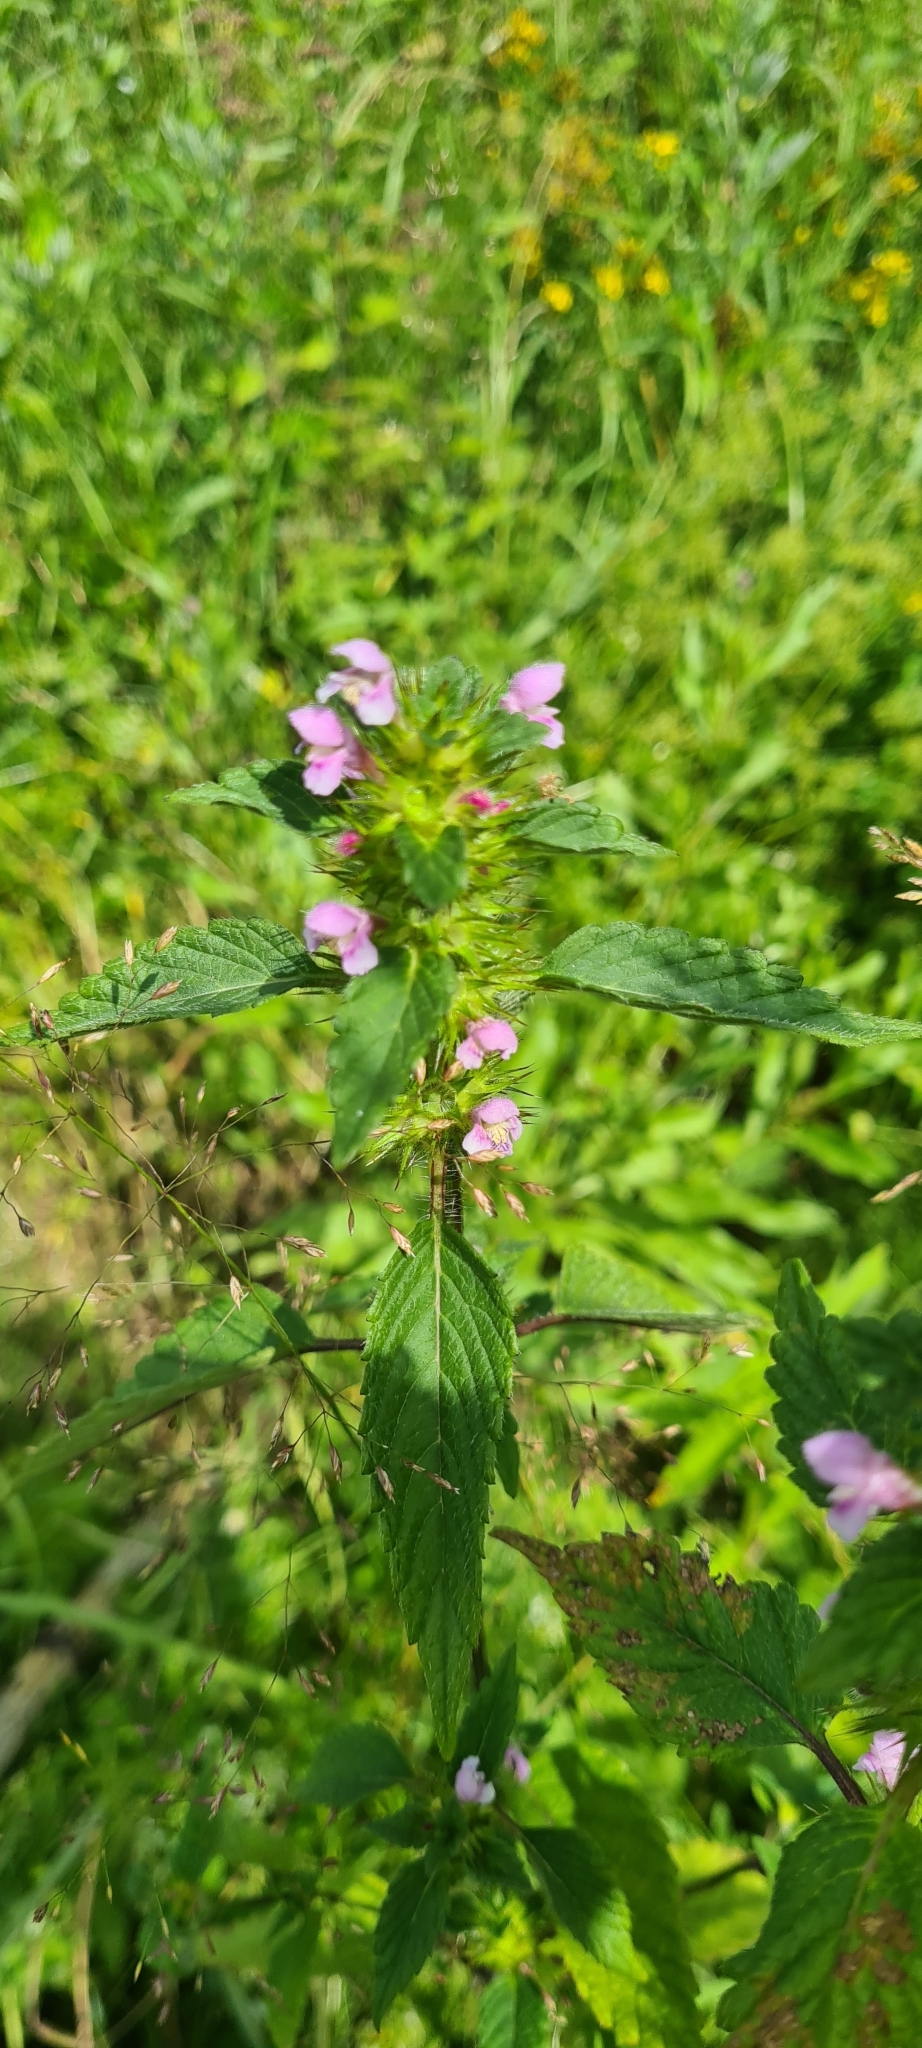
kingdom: Plantae
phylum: Tracheophyta
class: Magnoliopsida
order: Lamiales
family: Lamiaceae
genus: Galeopsis
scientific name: Galeopsis tetrahit
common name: Common hemp-nettle
